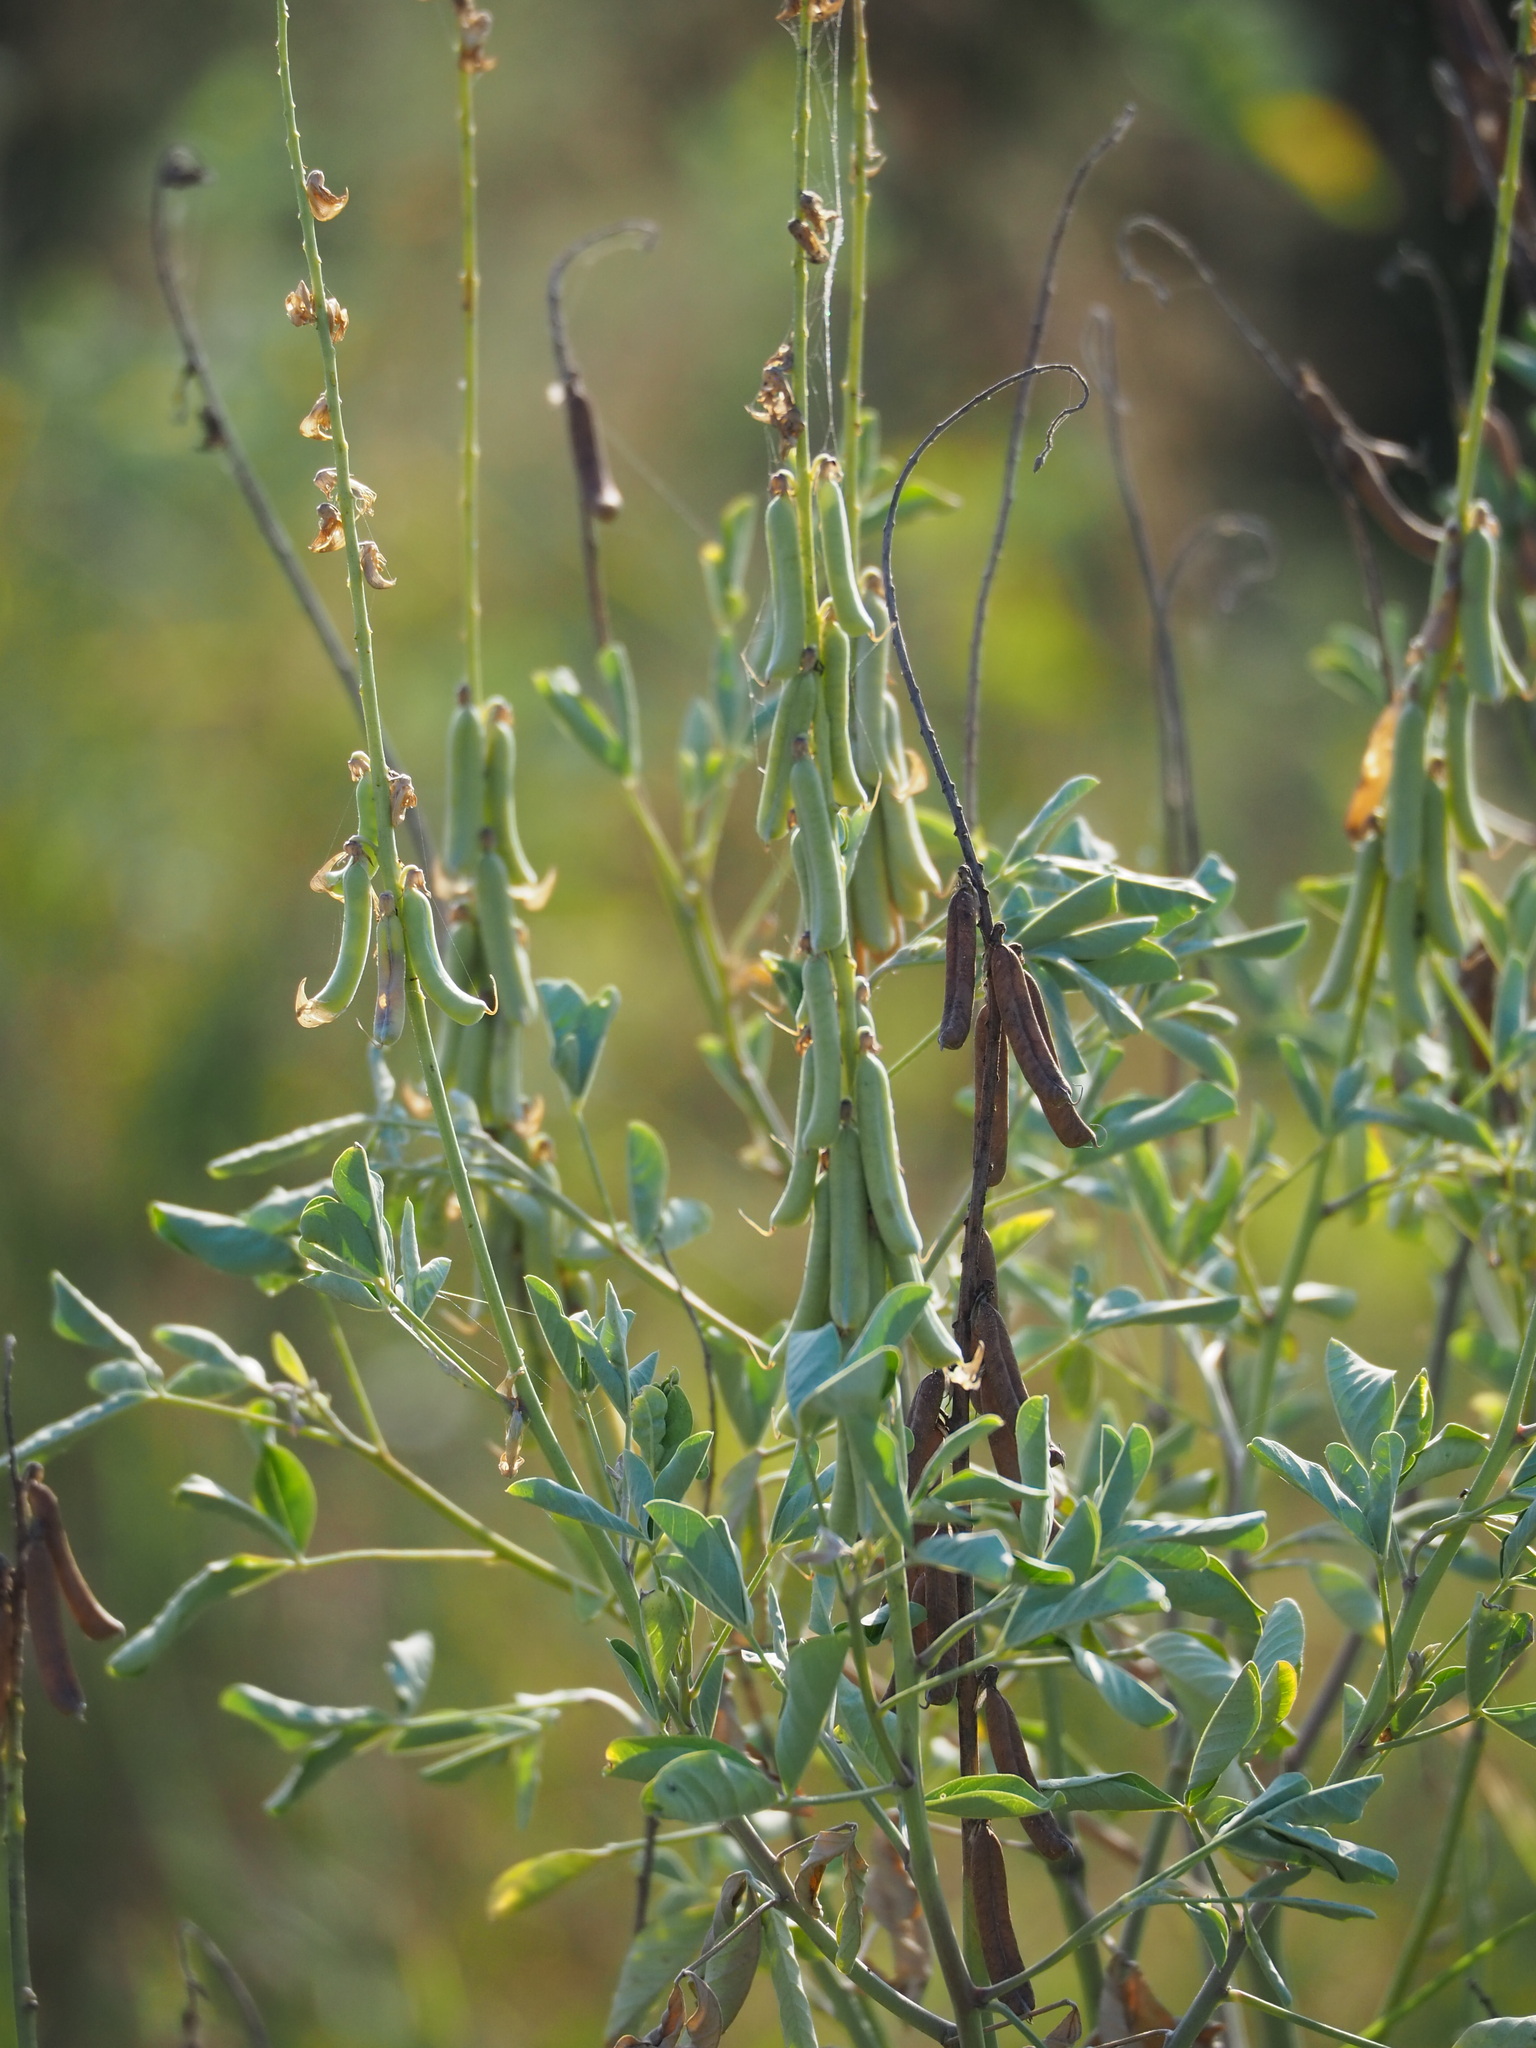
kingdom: Plantae
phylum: Tracheophyta
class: Magnoliopsida
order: Fabales
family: Fabaceae
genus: Crotalaria
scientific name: Crotalaria pallida
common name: Smooth rattlebox
